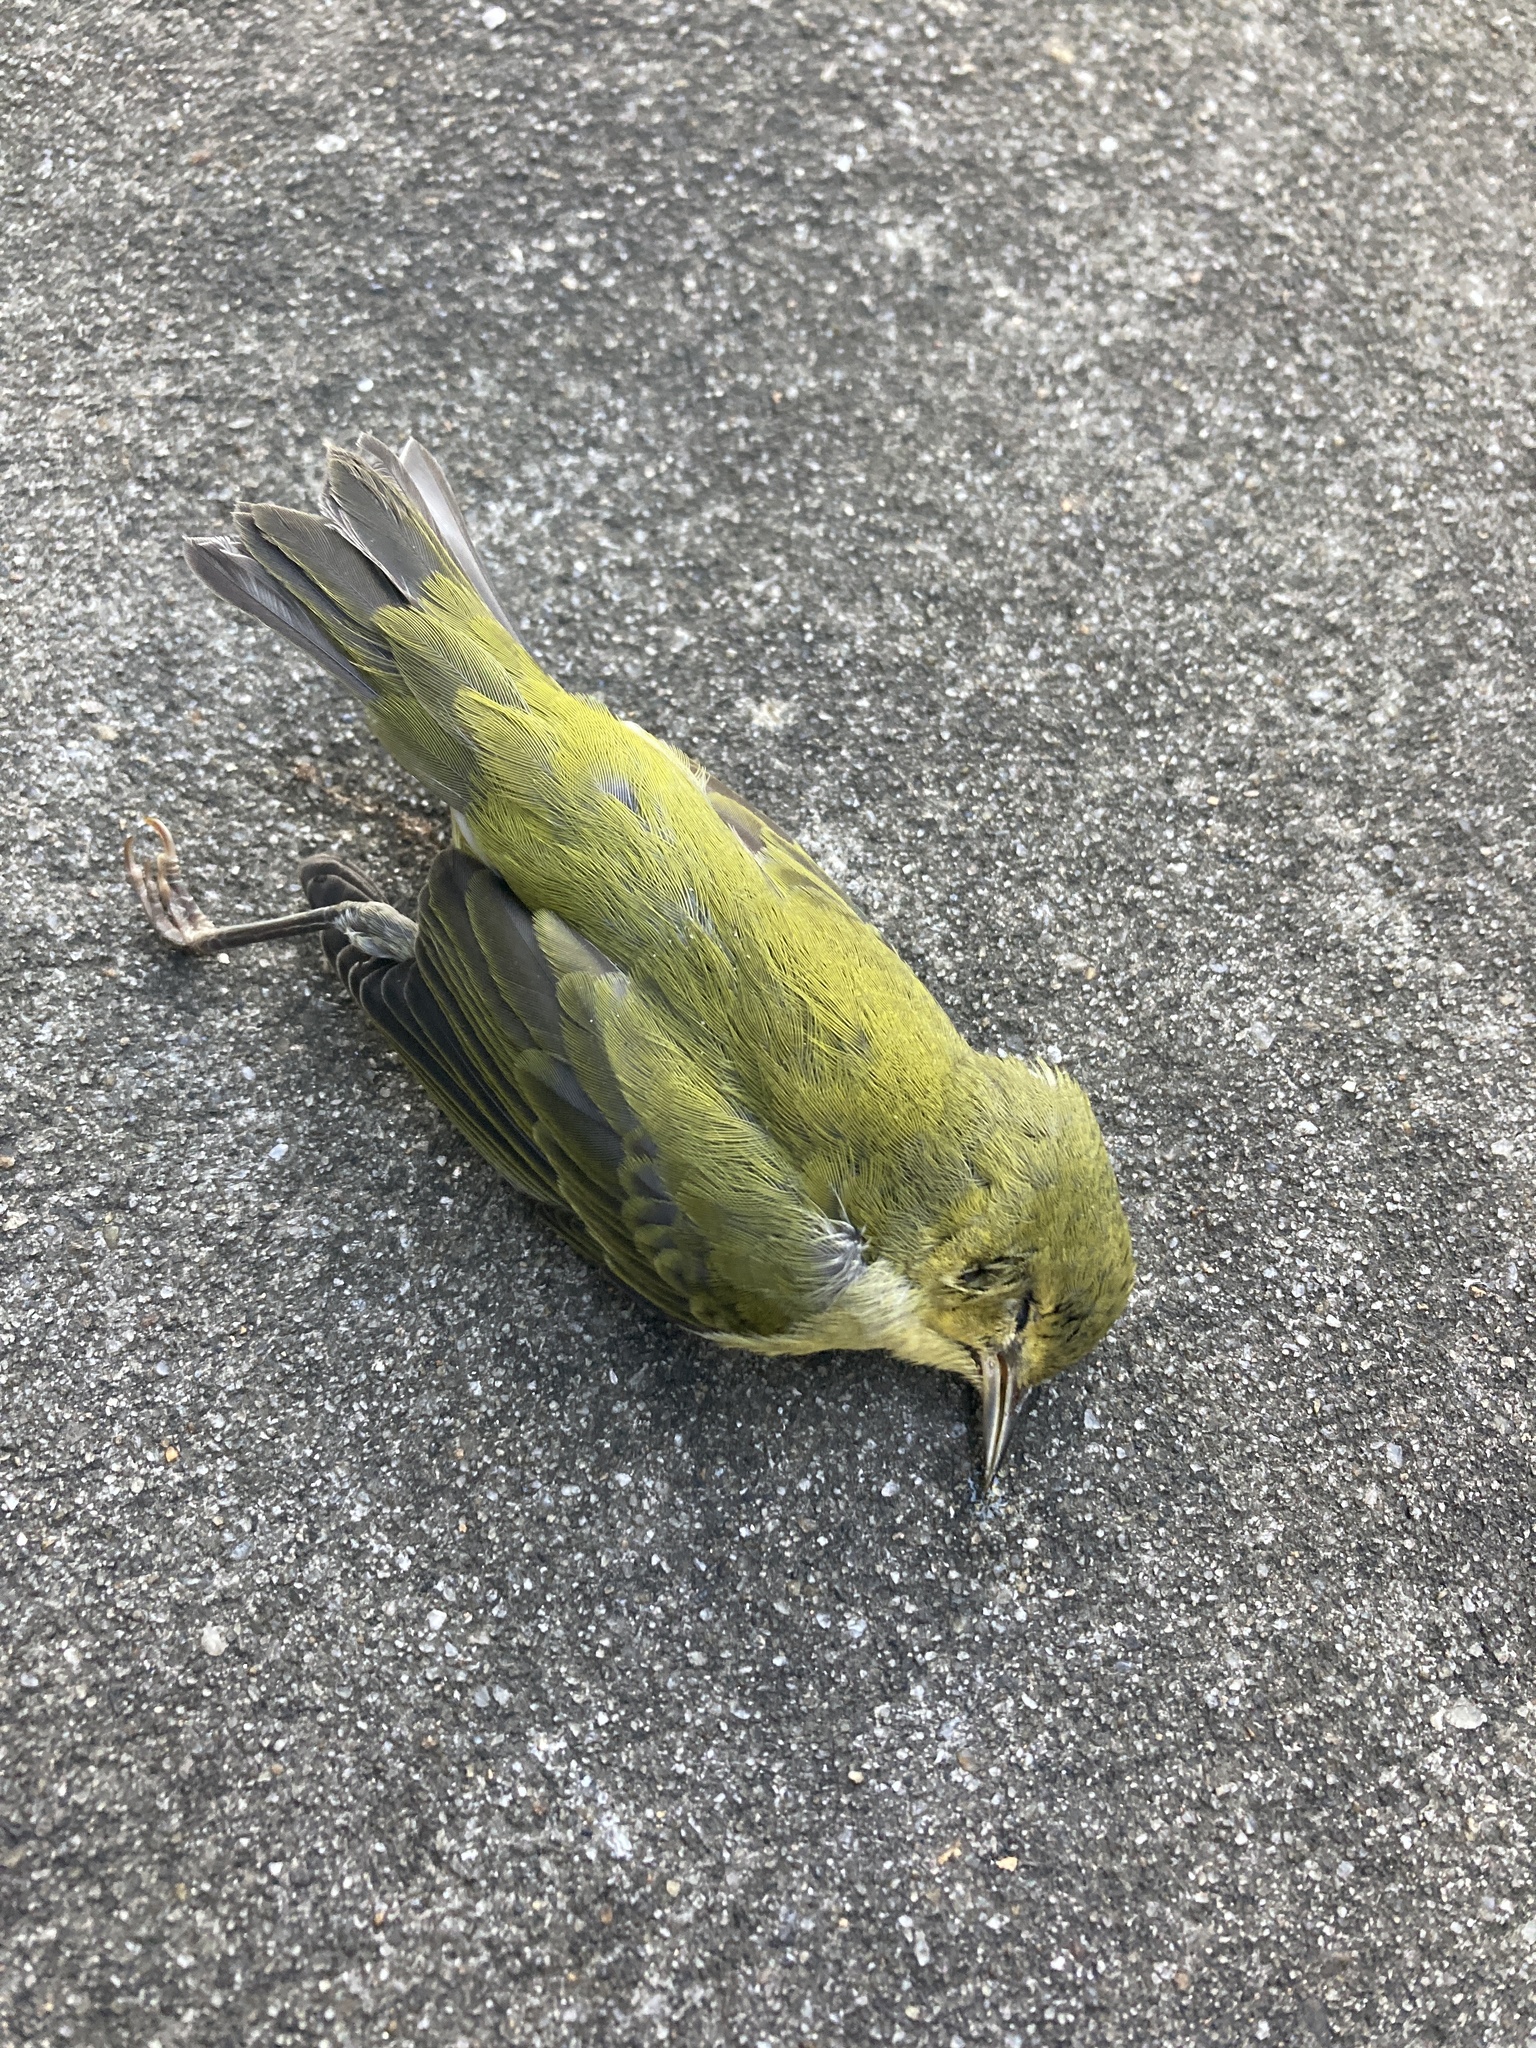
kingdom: Animalia
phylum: Chordata
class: Aves
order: Passeriformes
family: Parulidae
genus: Leiothlypis
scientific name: Leiothlypis peregrina
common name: Tennessee warbler
